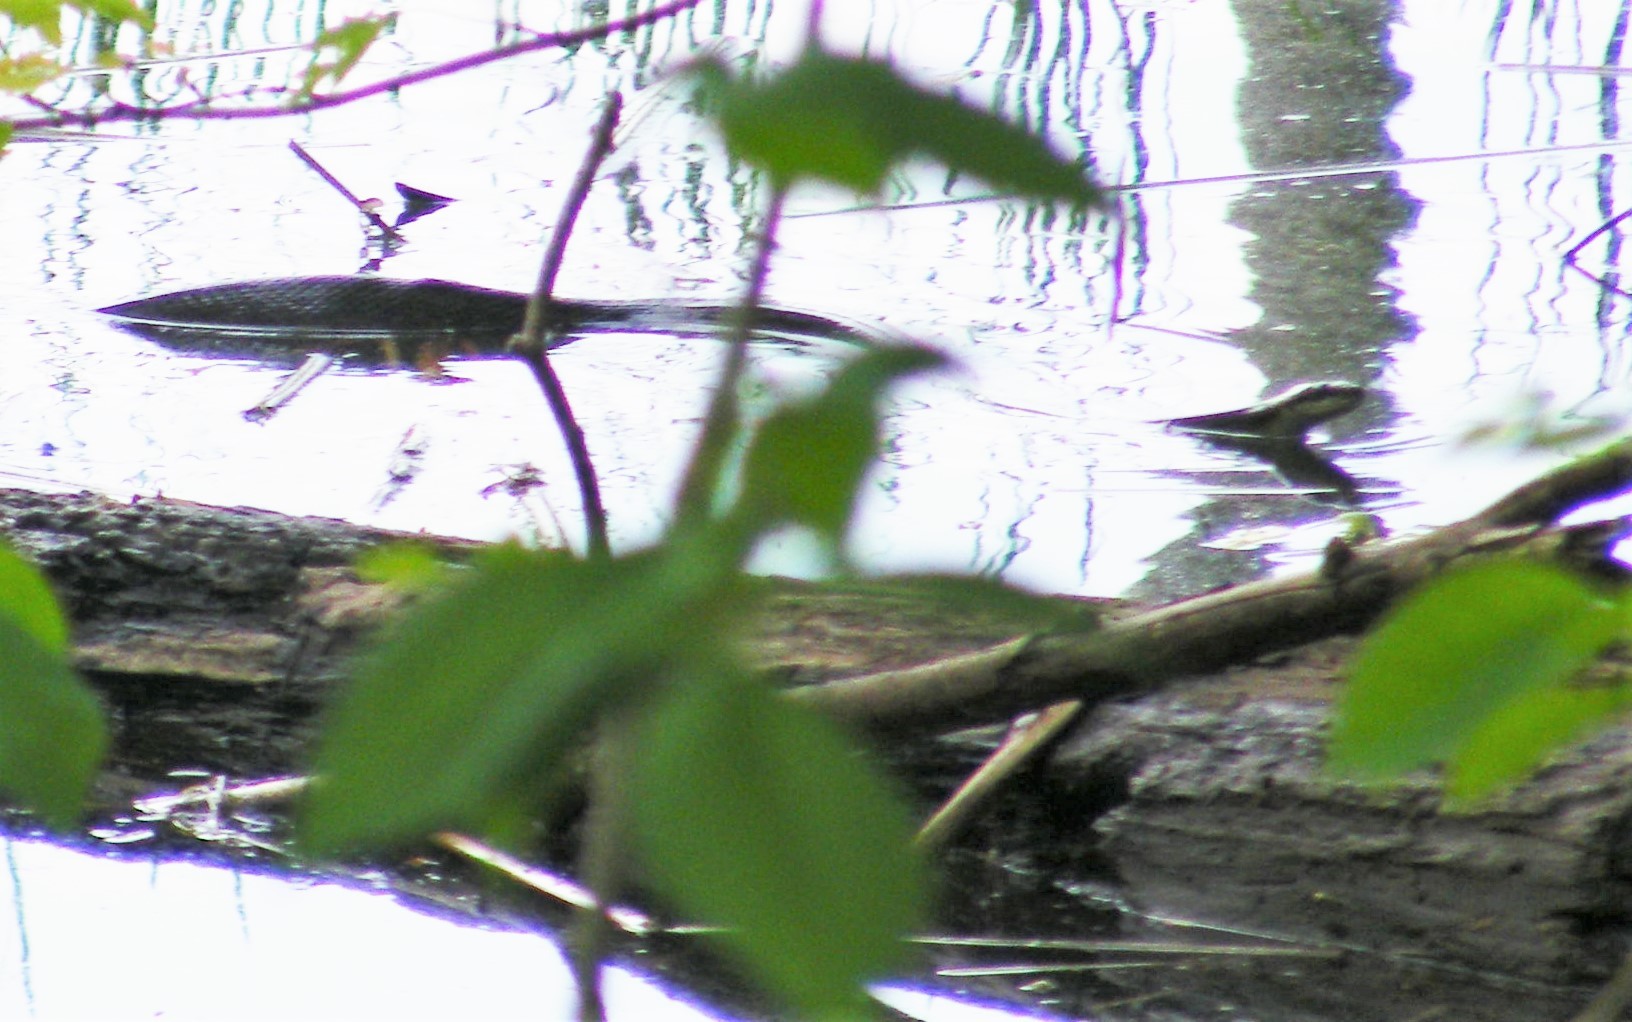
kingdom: Animalia
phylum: Chordata
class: Squamata
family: Colubridae
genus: Pantherophis
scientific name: Pantherophis
